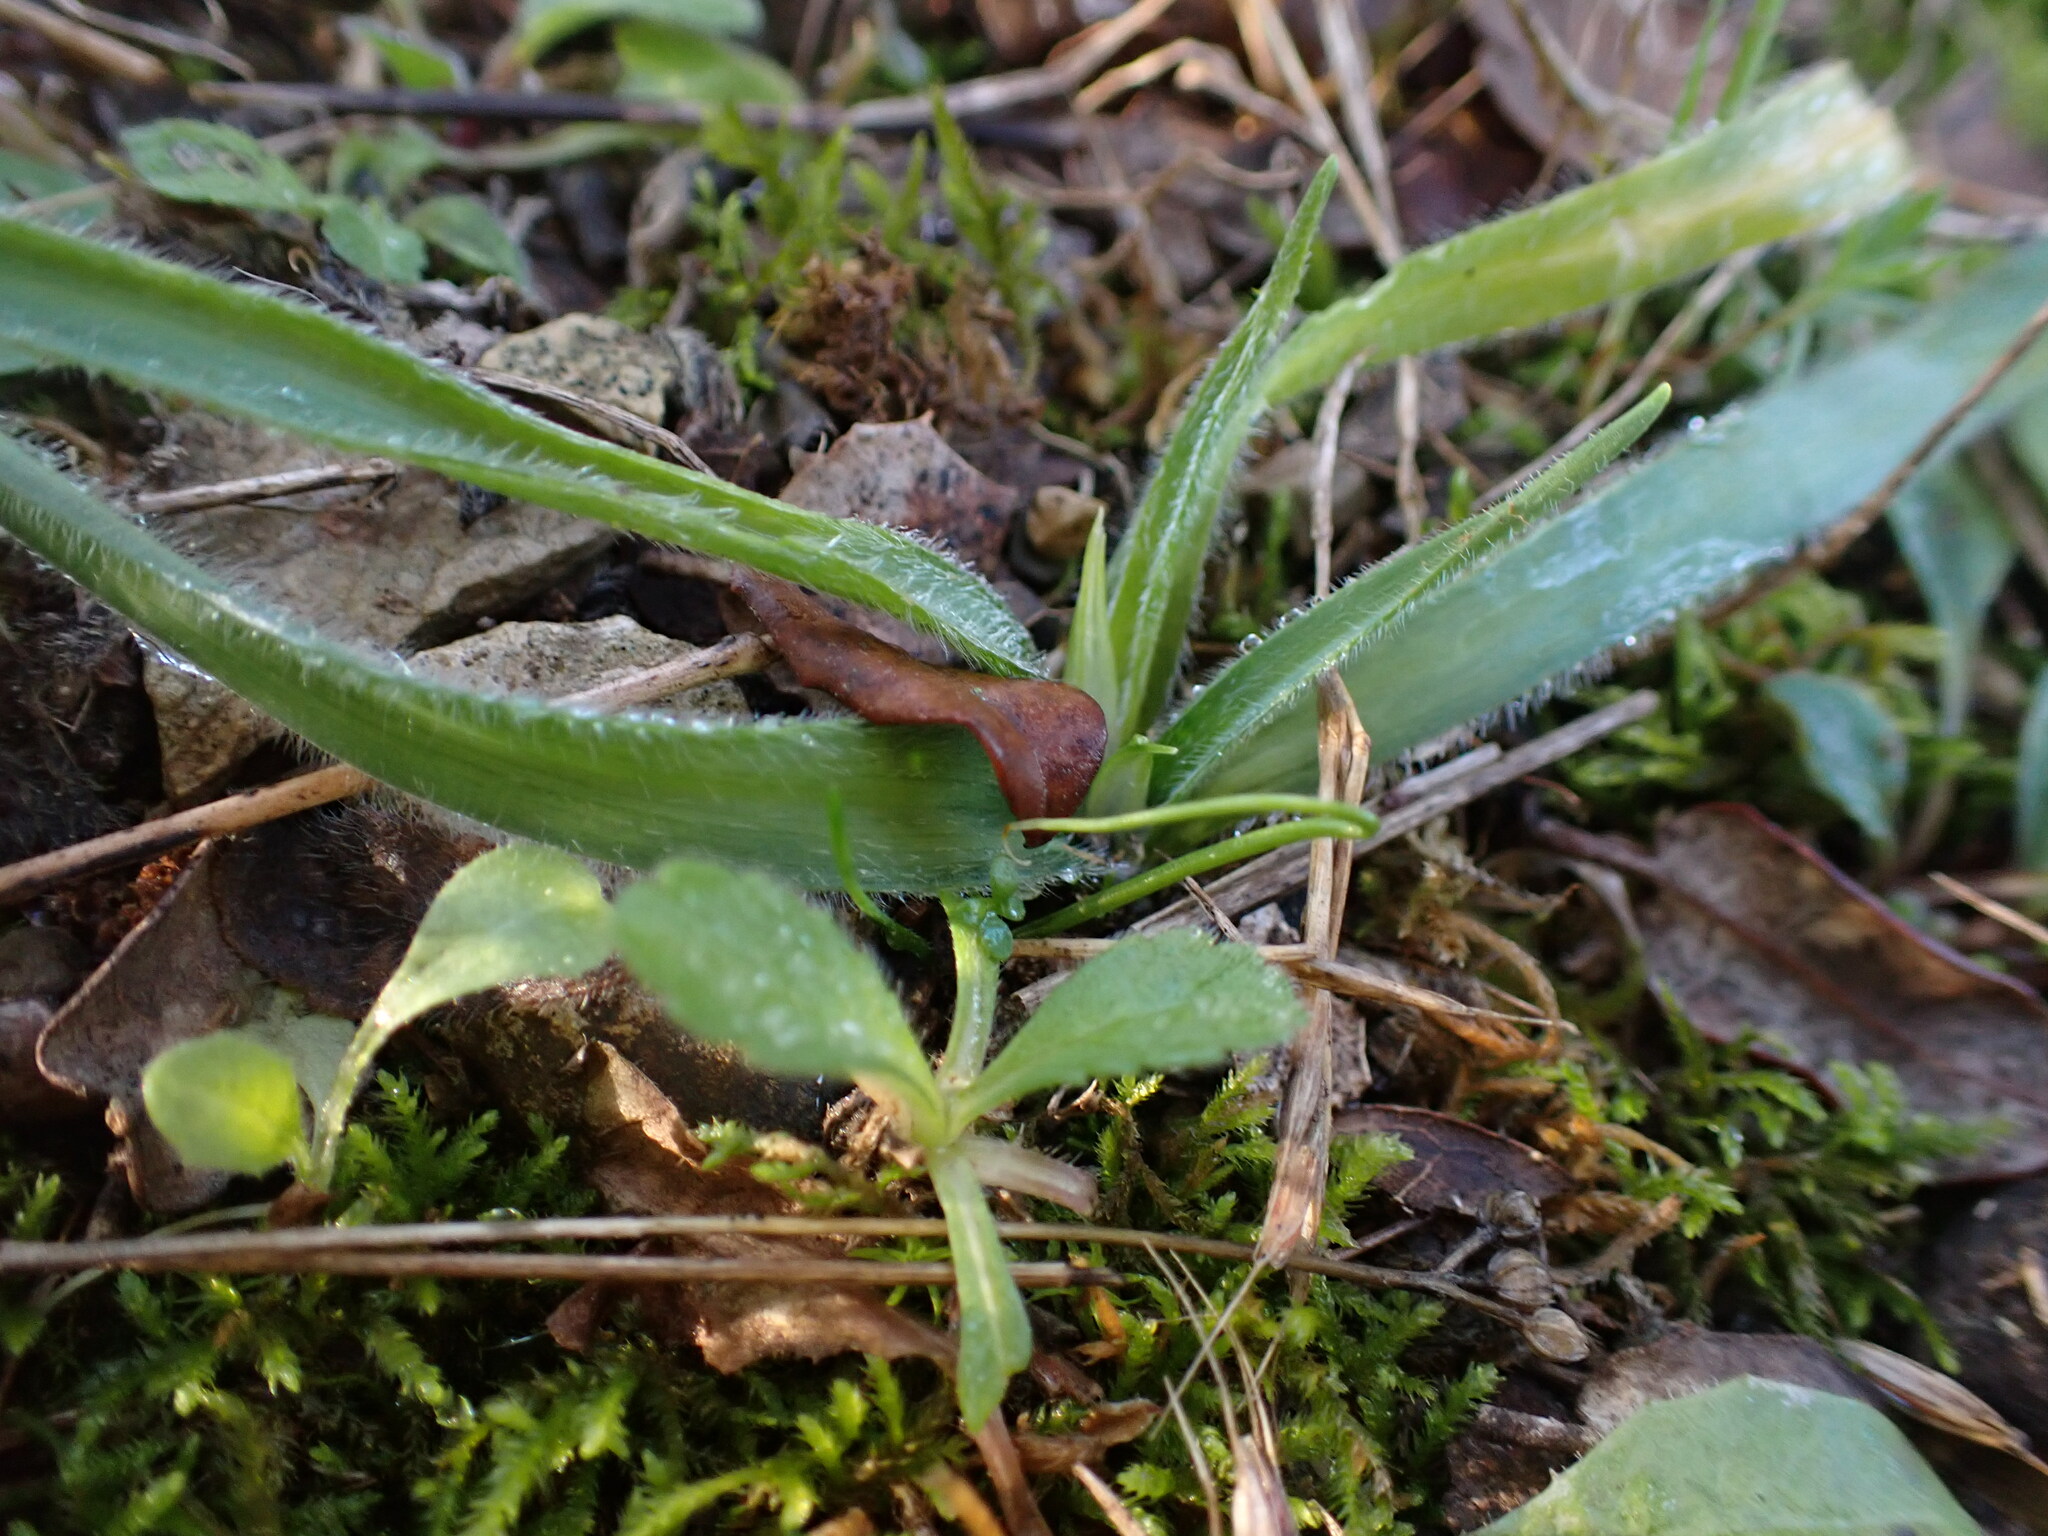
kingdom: Plantae
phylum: Tracheophyta
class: Liliopsida
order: Asparagales
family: Amaryllidaceae
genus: Allium
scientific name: Allium chamaemoly
